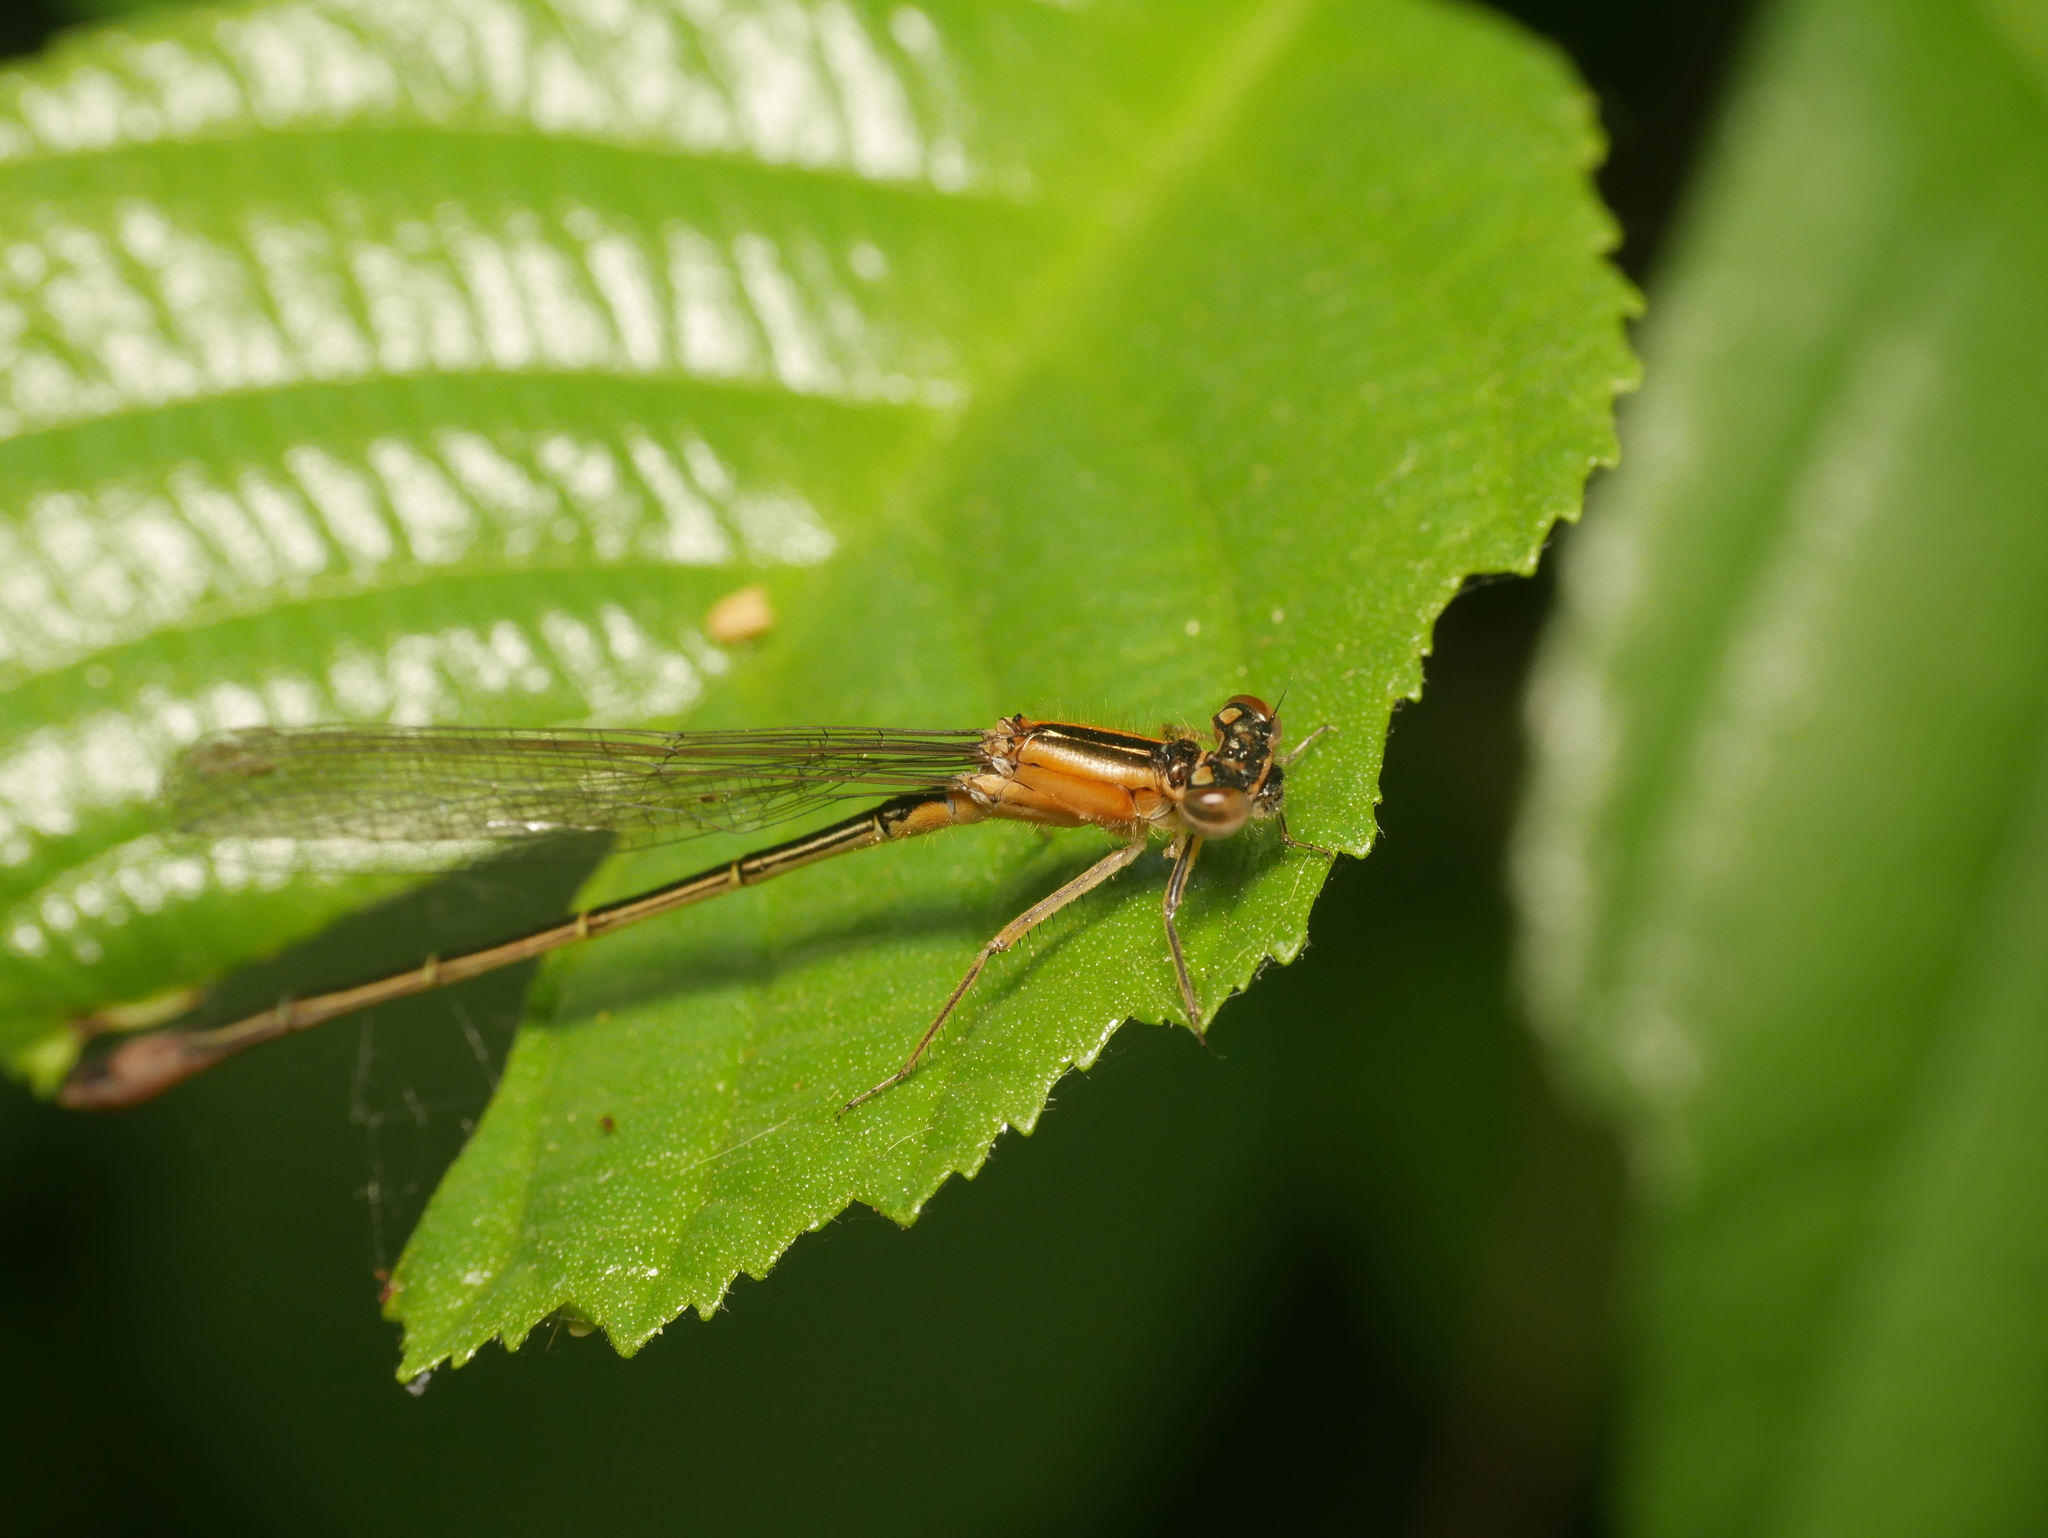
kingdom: Animalia
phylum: Arthropoda
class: Insecta
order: Odonata
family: Coenagrionidae
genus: Ischnura
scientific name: Ischnura elegans
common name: Blue-tailed damselfly
